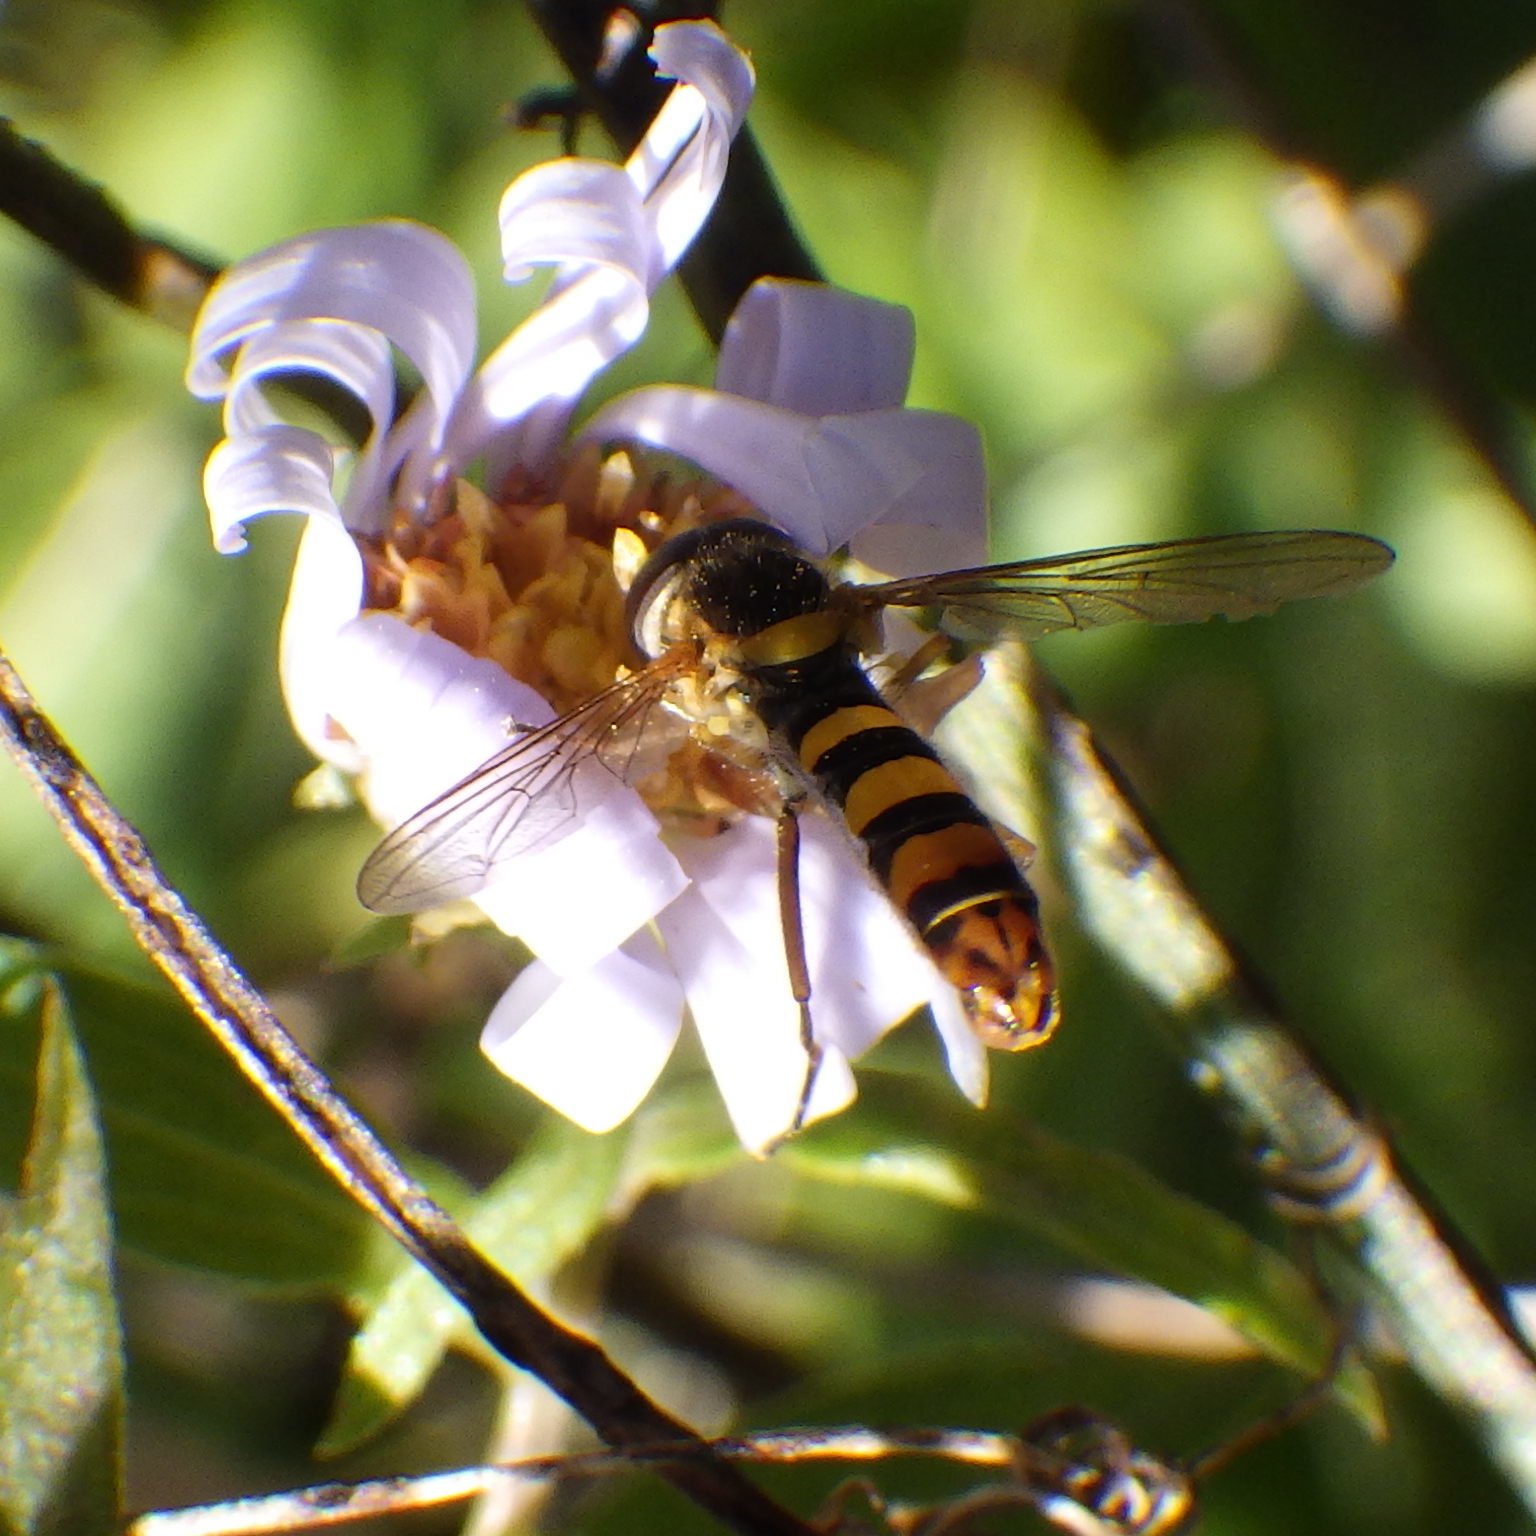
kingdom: Animalia
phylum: Arthropoda
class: Insecta
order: Diptera
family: Syrphidae
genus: Sphaerophoria
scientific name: Sphaerophoria philantha
